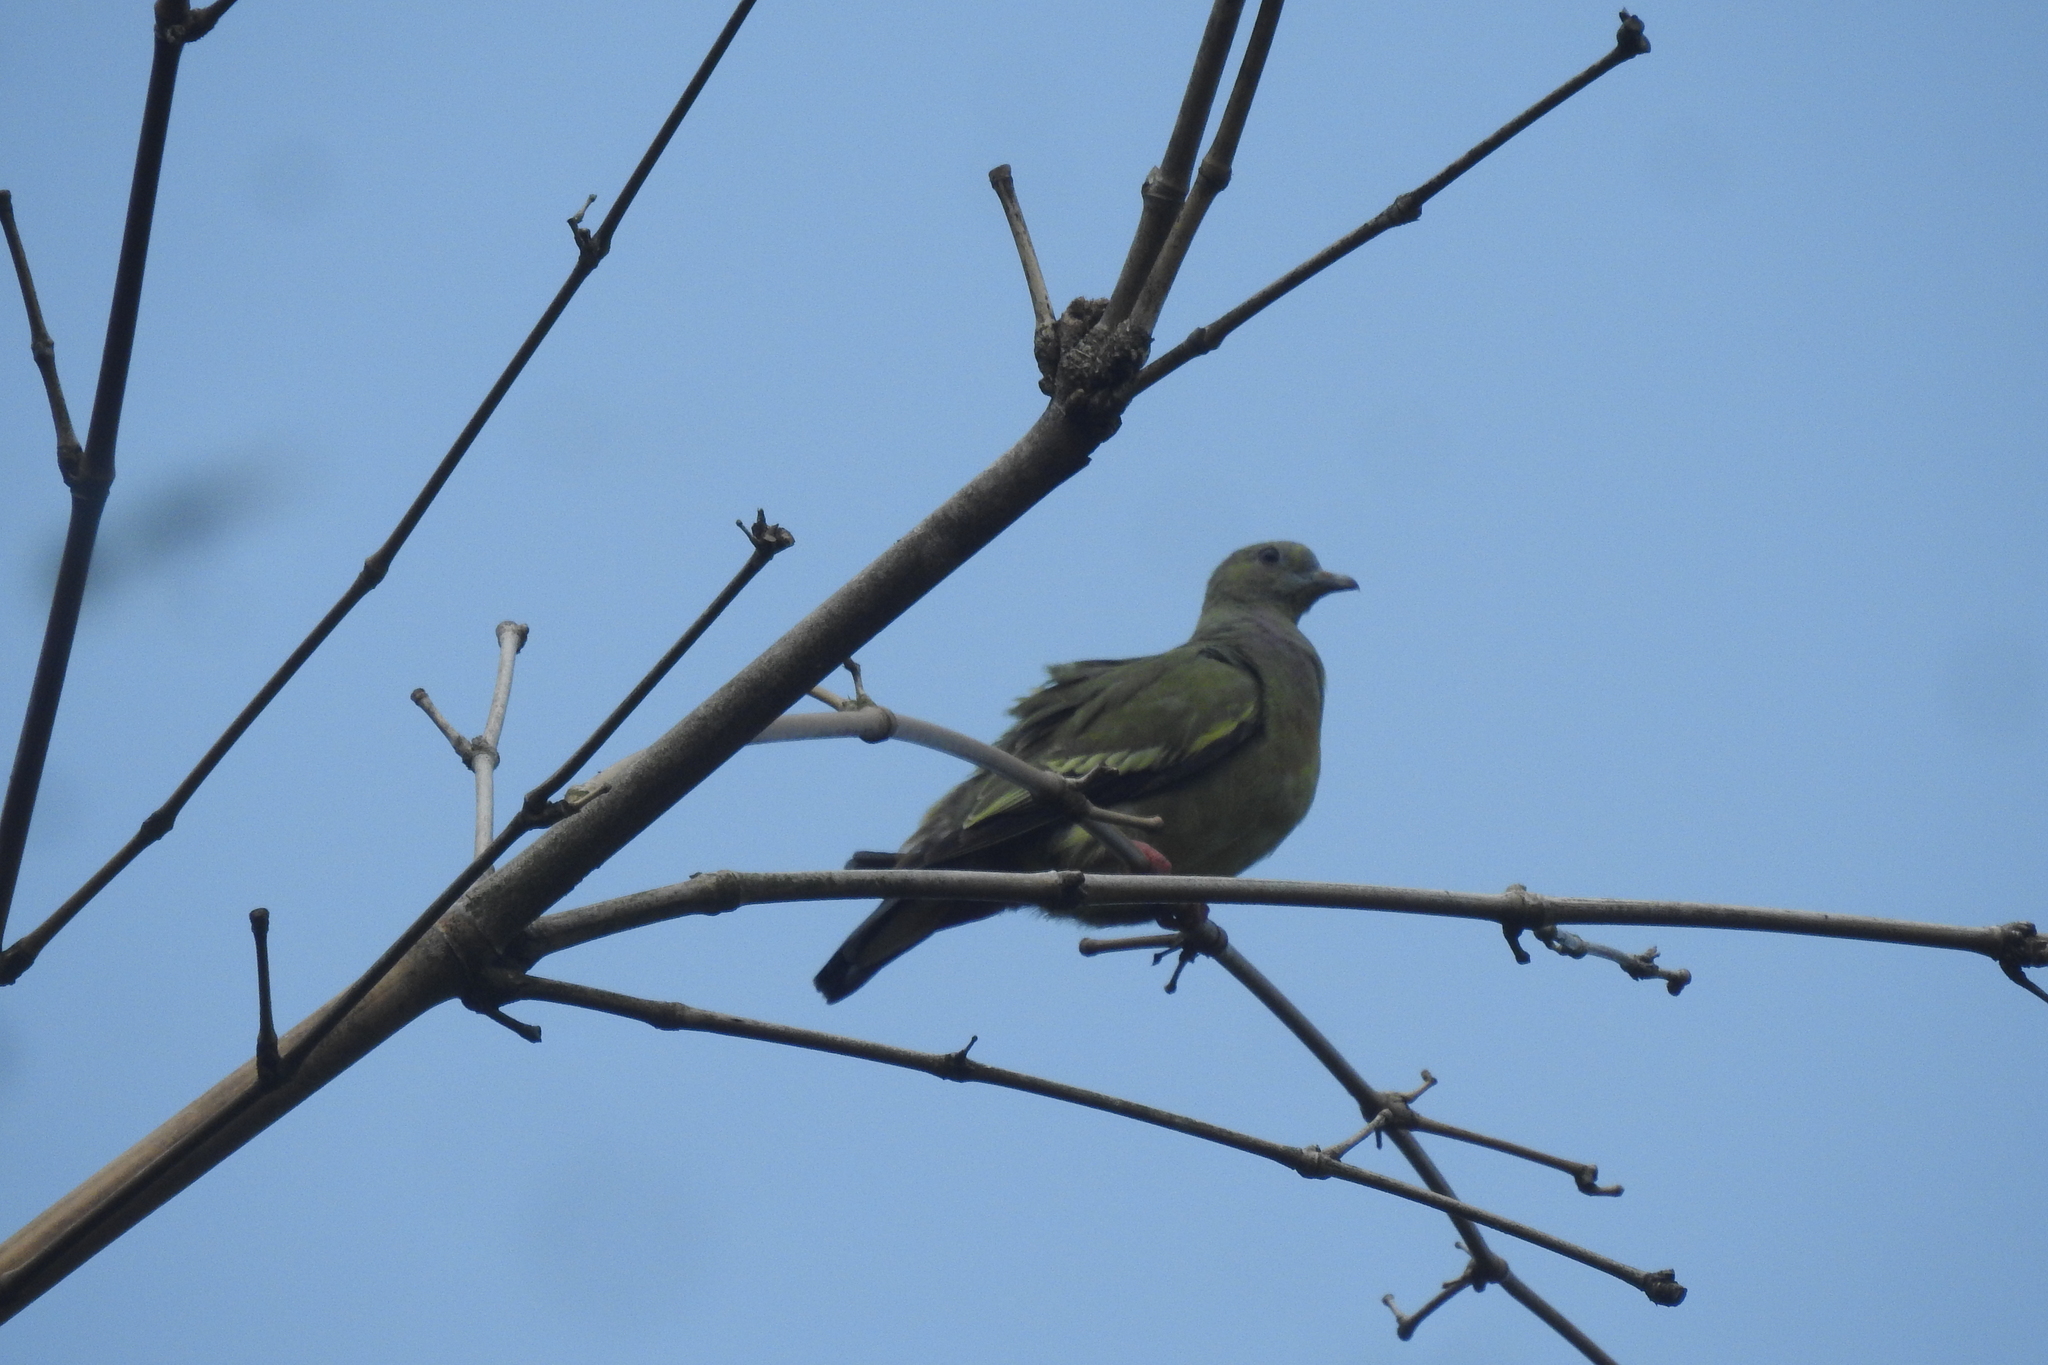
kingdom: Animalia
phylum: Chordata
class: Aves
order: Columbiformes
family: Columbidae
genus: Treron
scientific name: Treron vernans
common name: Pink-necked green pigeon
